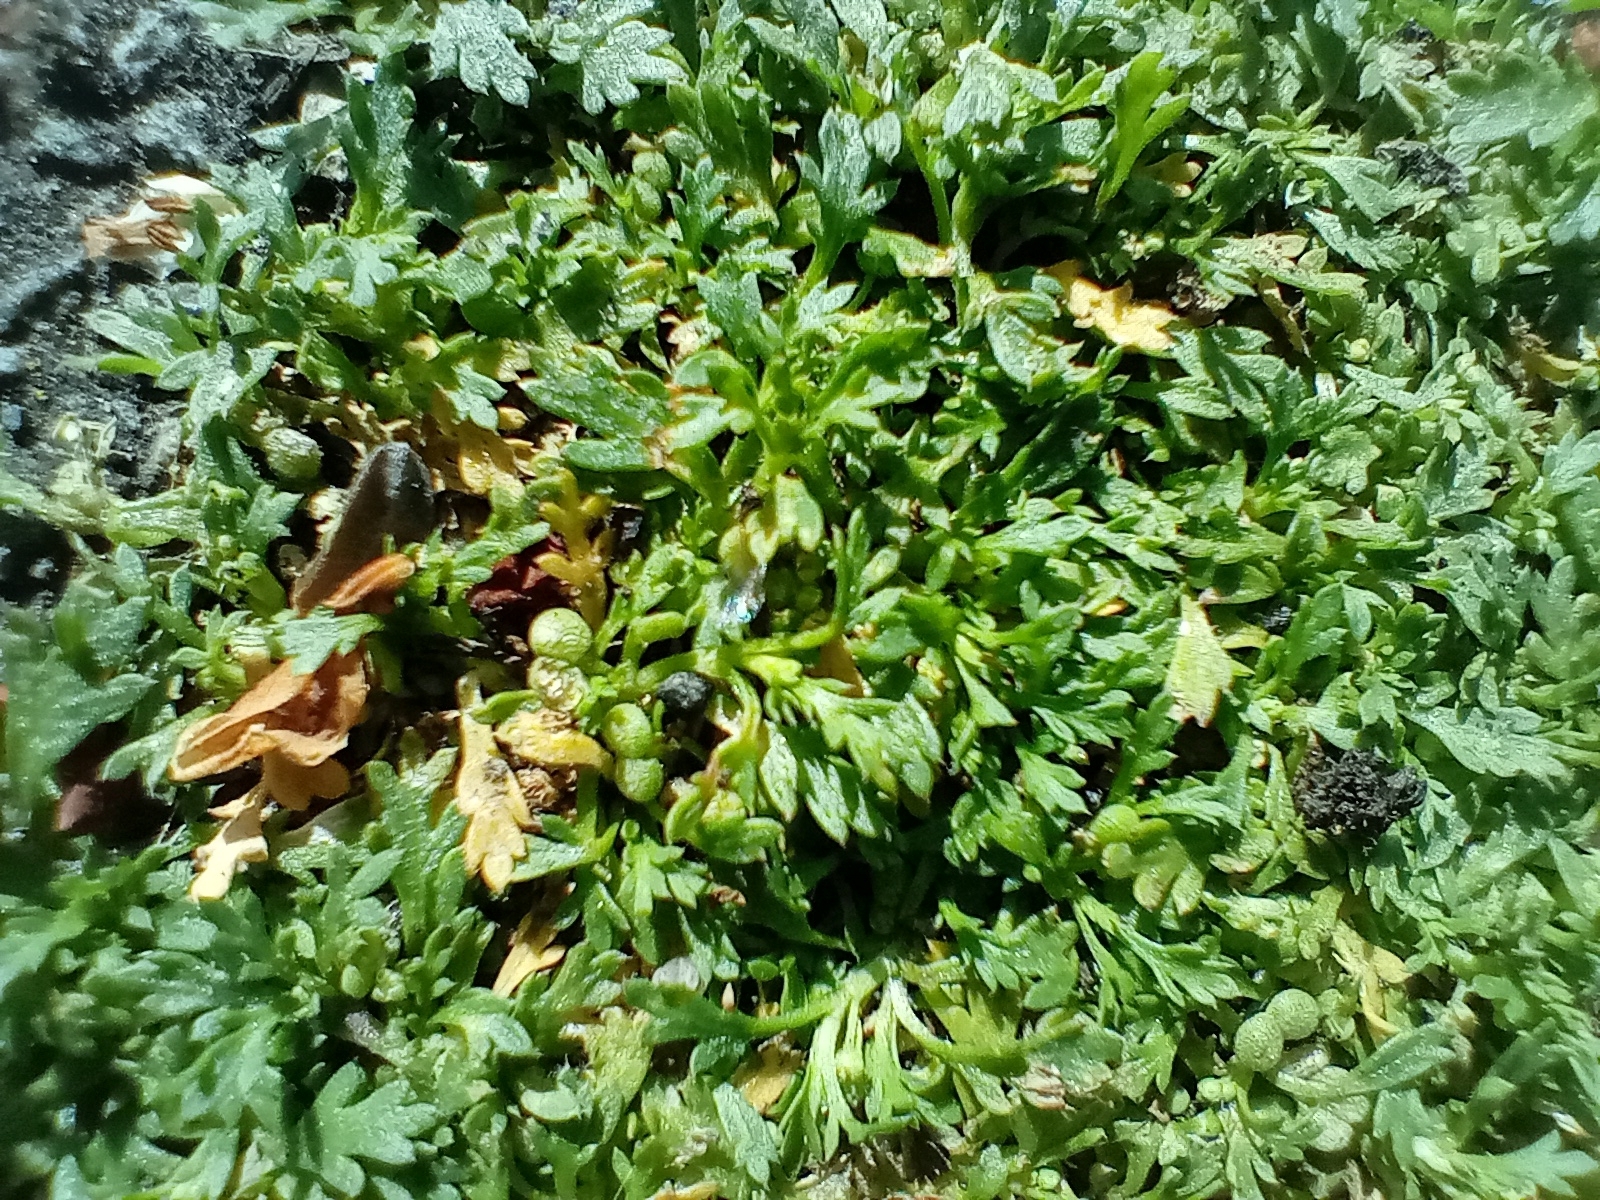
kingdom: Plantae
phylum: Tracheophyta
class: Magnoliopsida
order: Brassicales
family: Brassicaceae
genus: Lepidium
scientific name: Lepidium didymum
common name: Lesser swinecress
